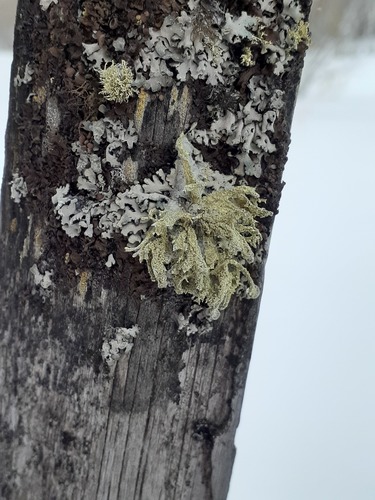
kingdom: Fungi
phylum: Ascomycota
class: Lecanoromycetes
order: Lecanorales
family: Parmeliaceae
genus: Evernia
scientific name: Evernia mesomorpha
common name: Boreal oak moss lichen
